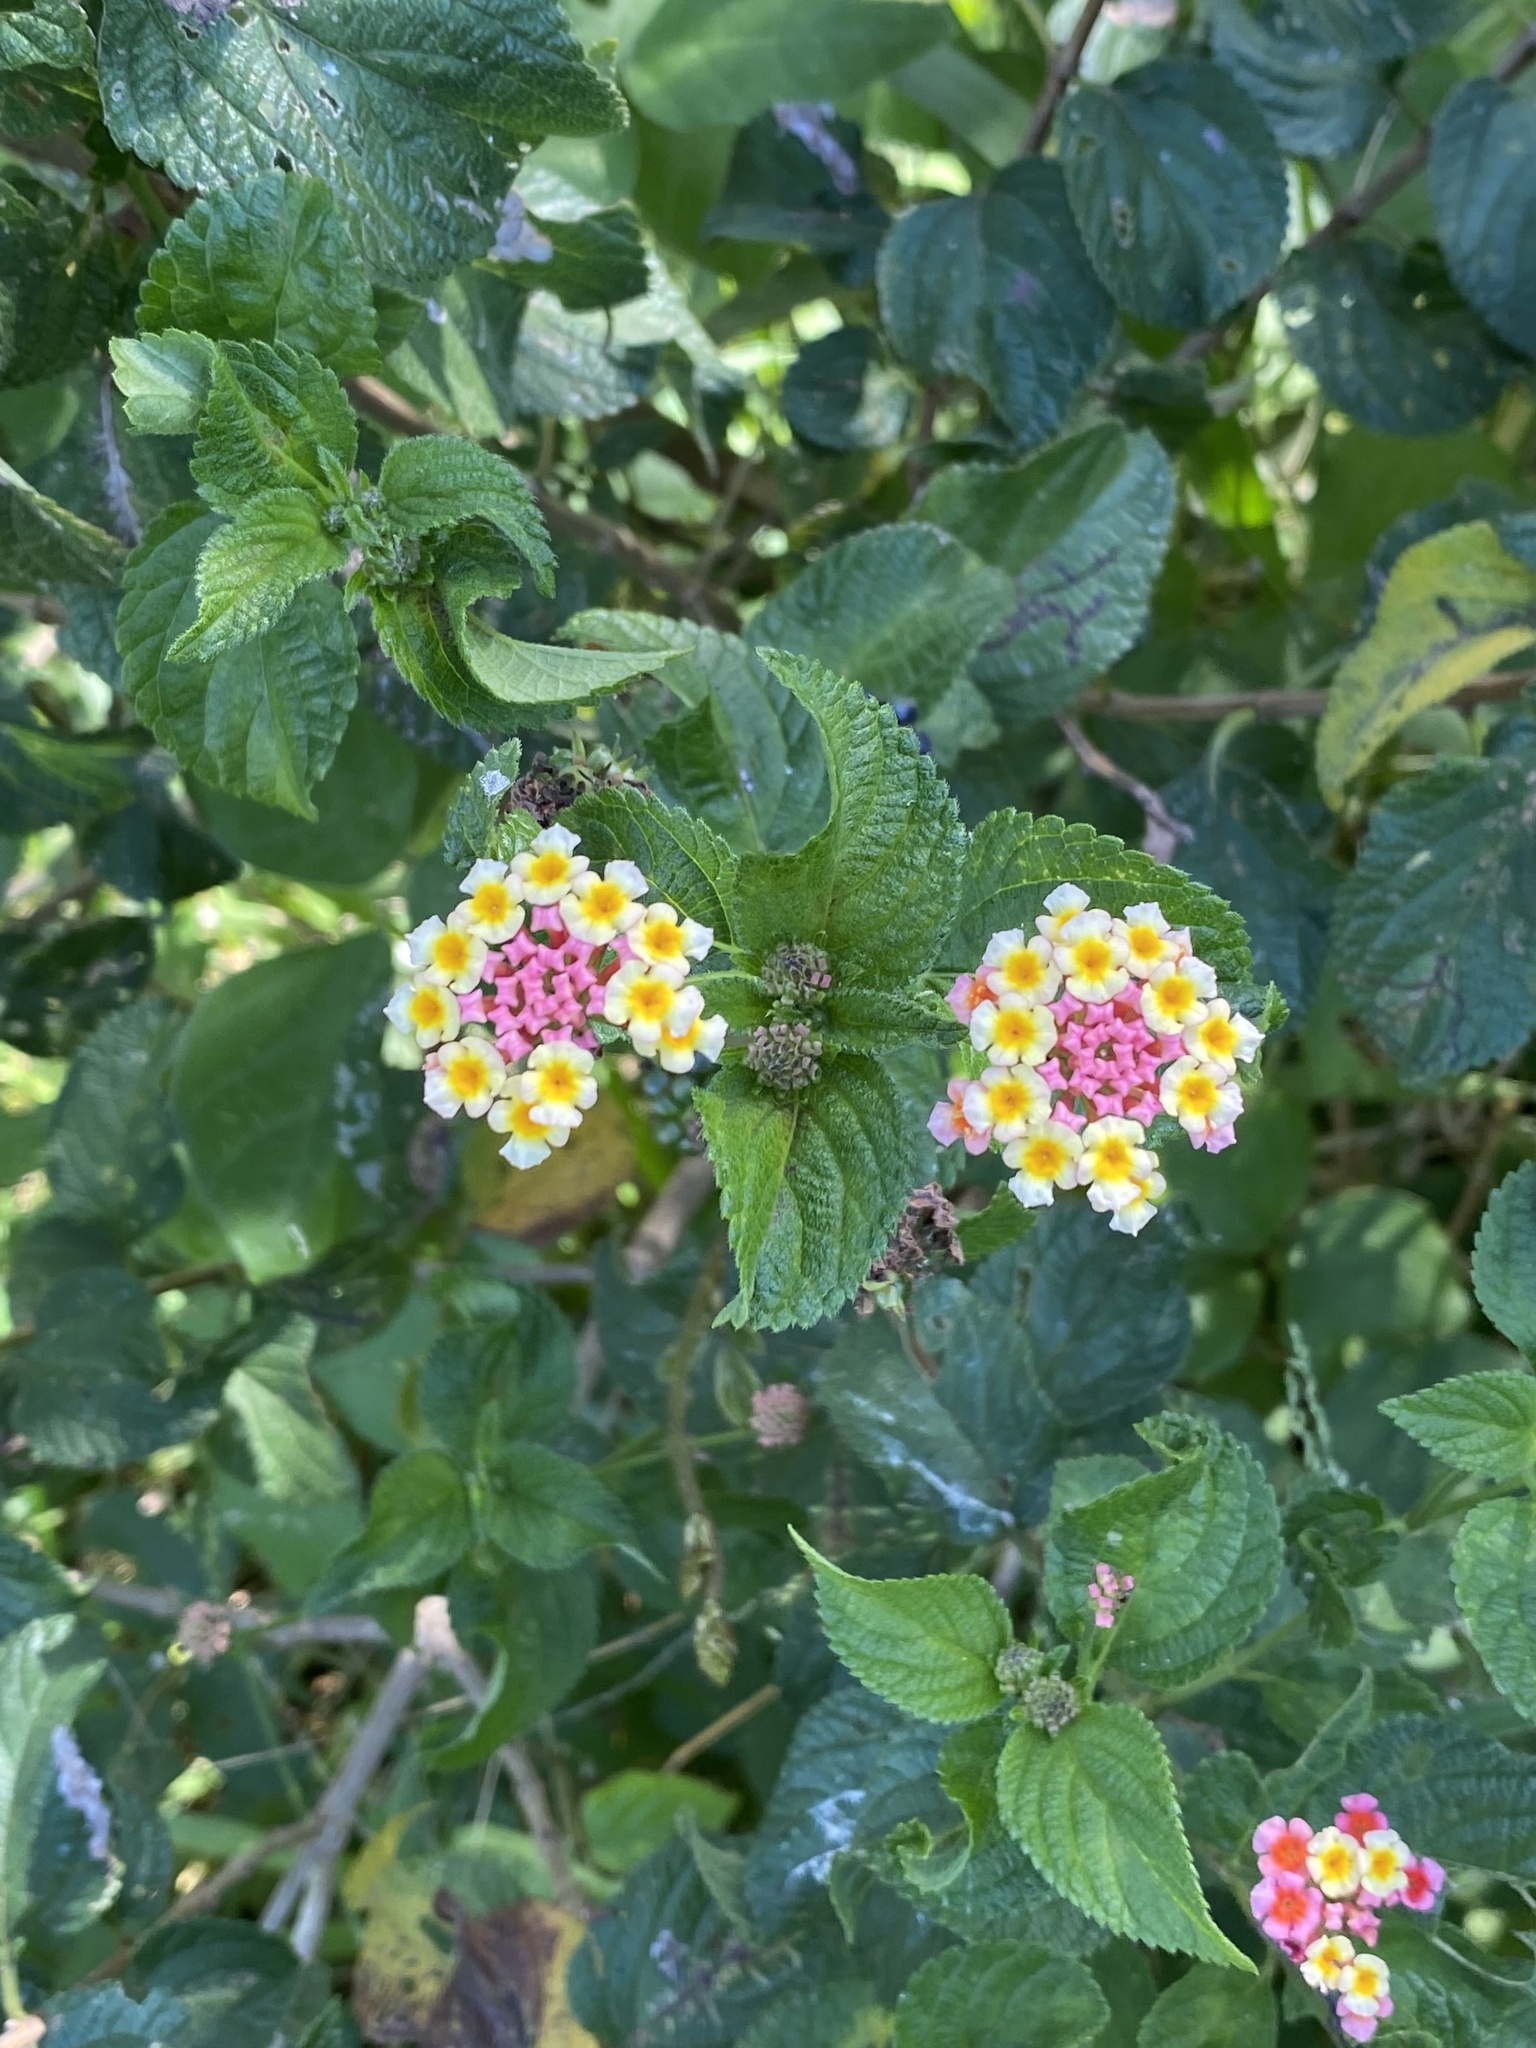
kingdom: Plantae
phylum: Tracheophyta
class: Magnoliopsida
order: Lamiales
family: Verbenaceae
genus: Lantana
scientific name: Lantana camara
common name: Lantana
